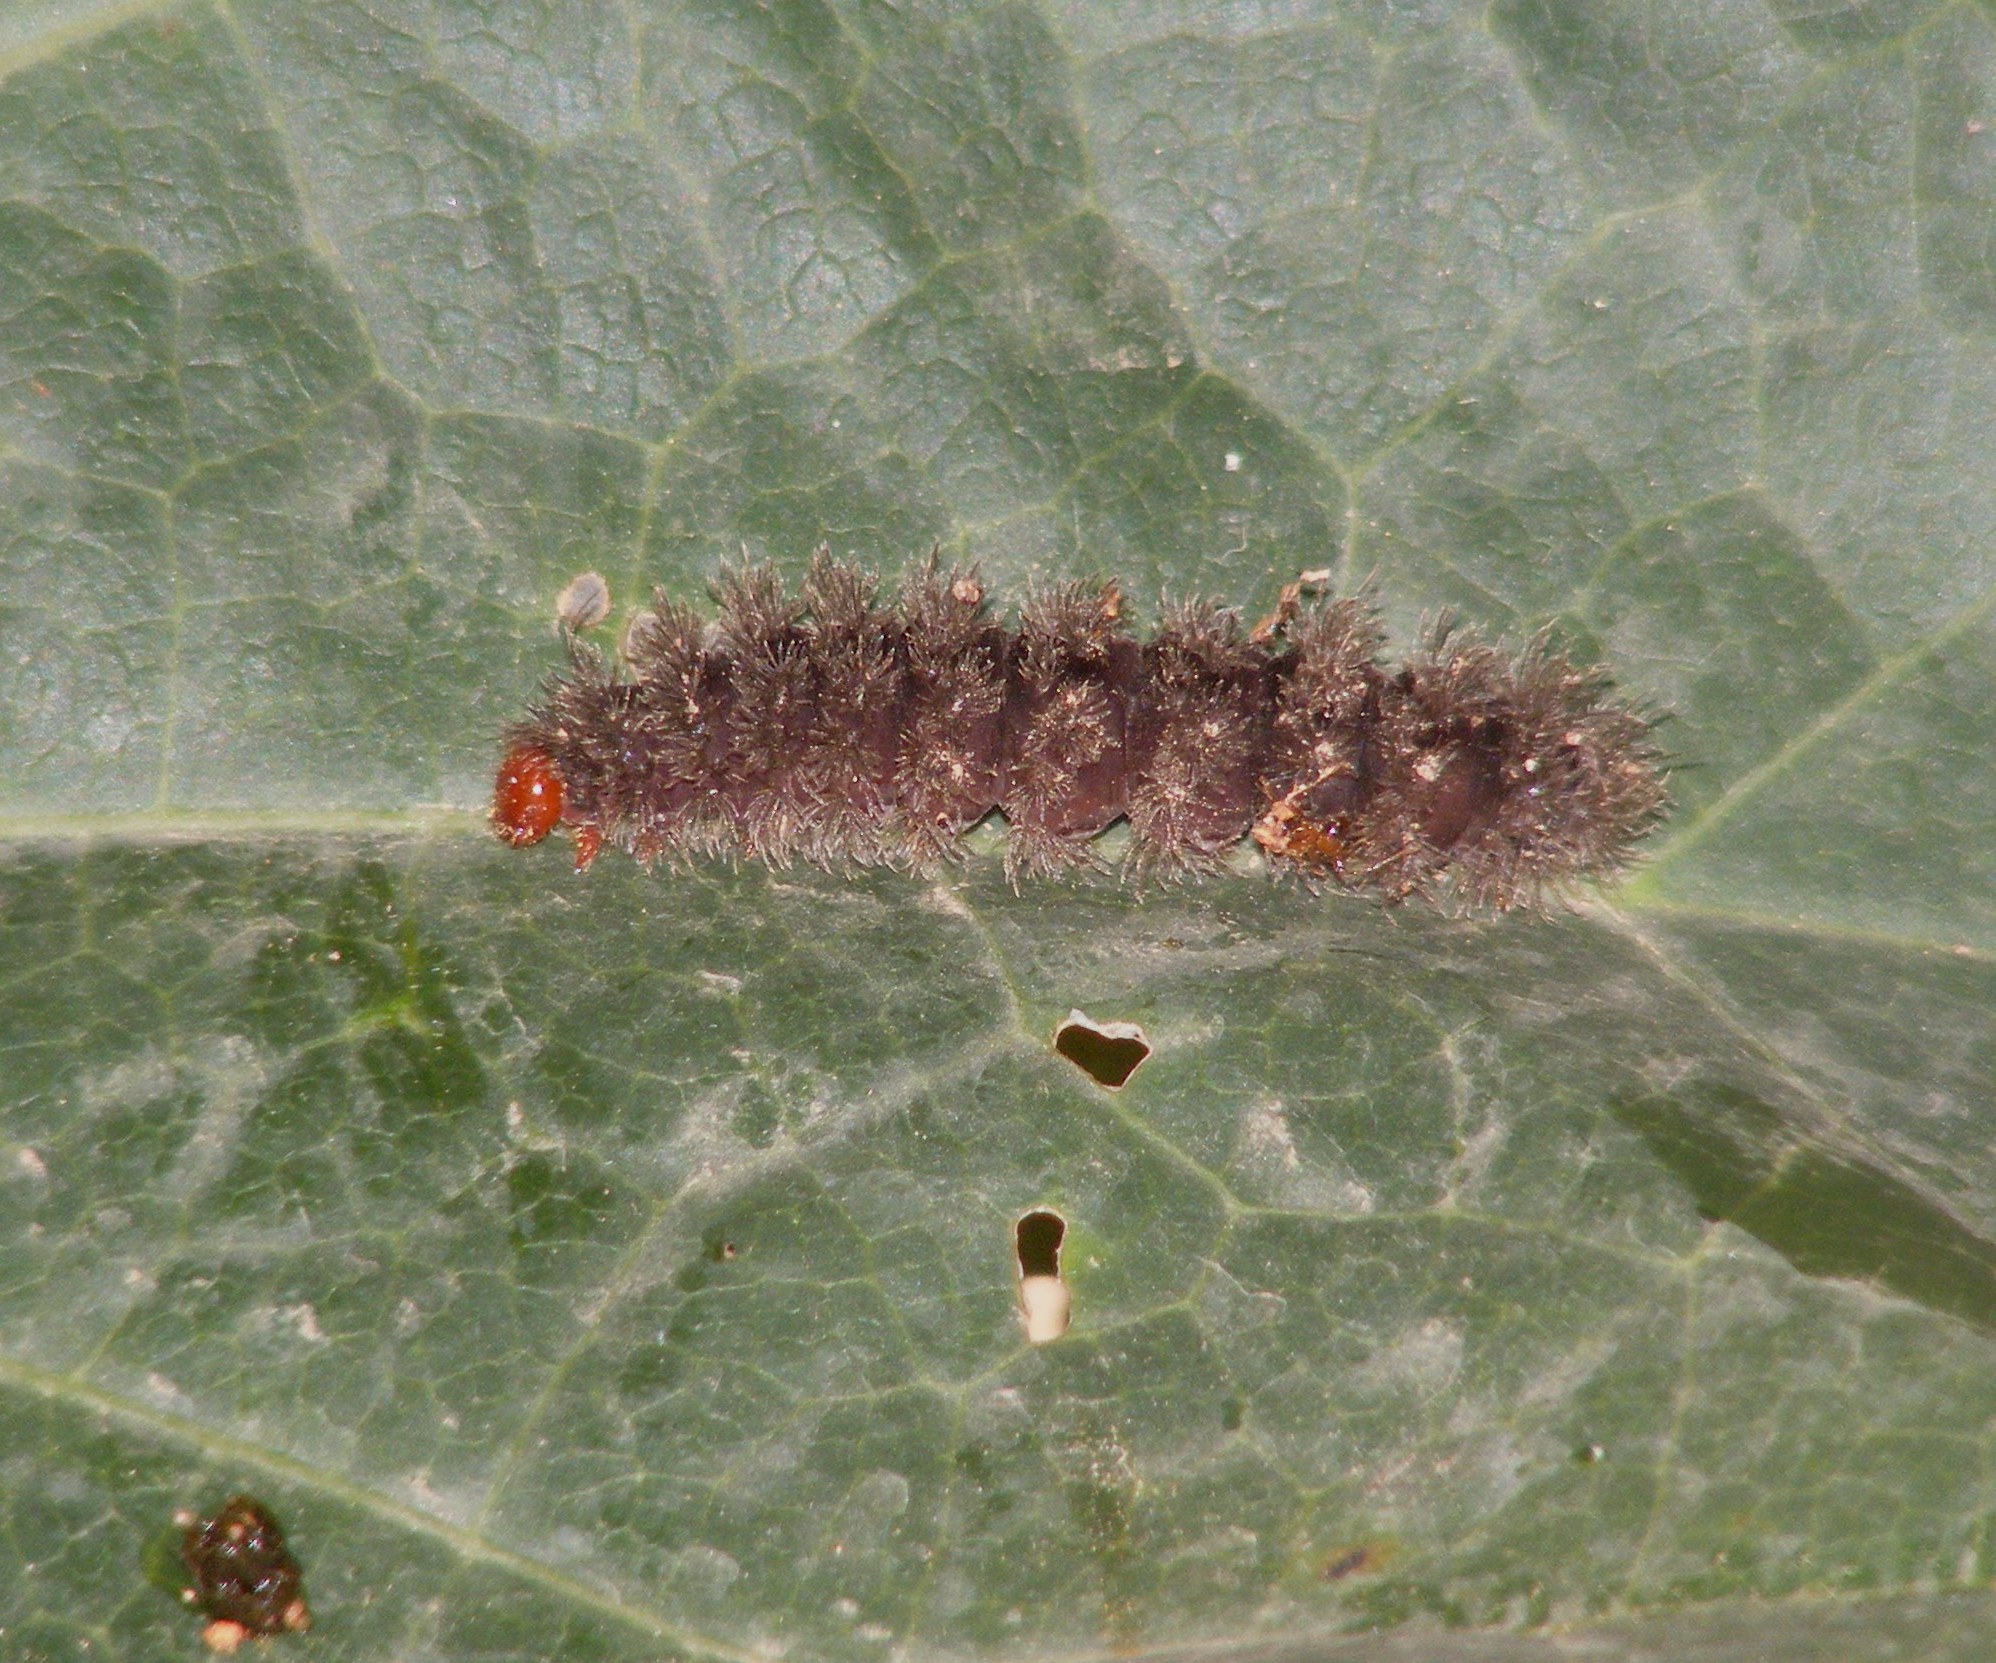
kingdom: Animalia
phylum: Arthropoda
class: Insecta
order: Lepidoptera
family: Erebidae
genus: Amata
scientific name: Amata passalis
